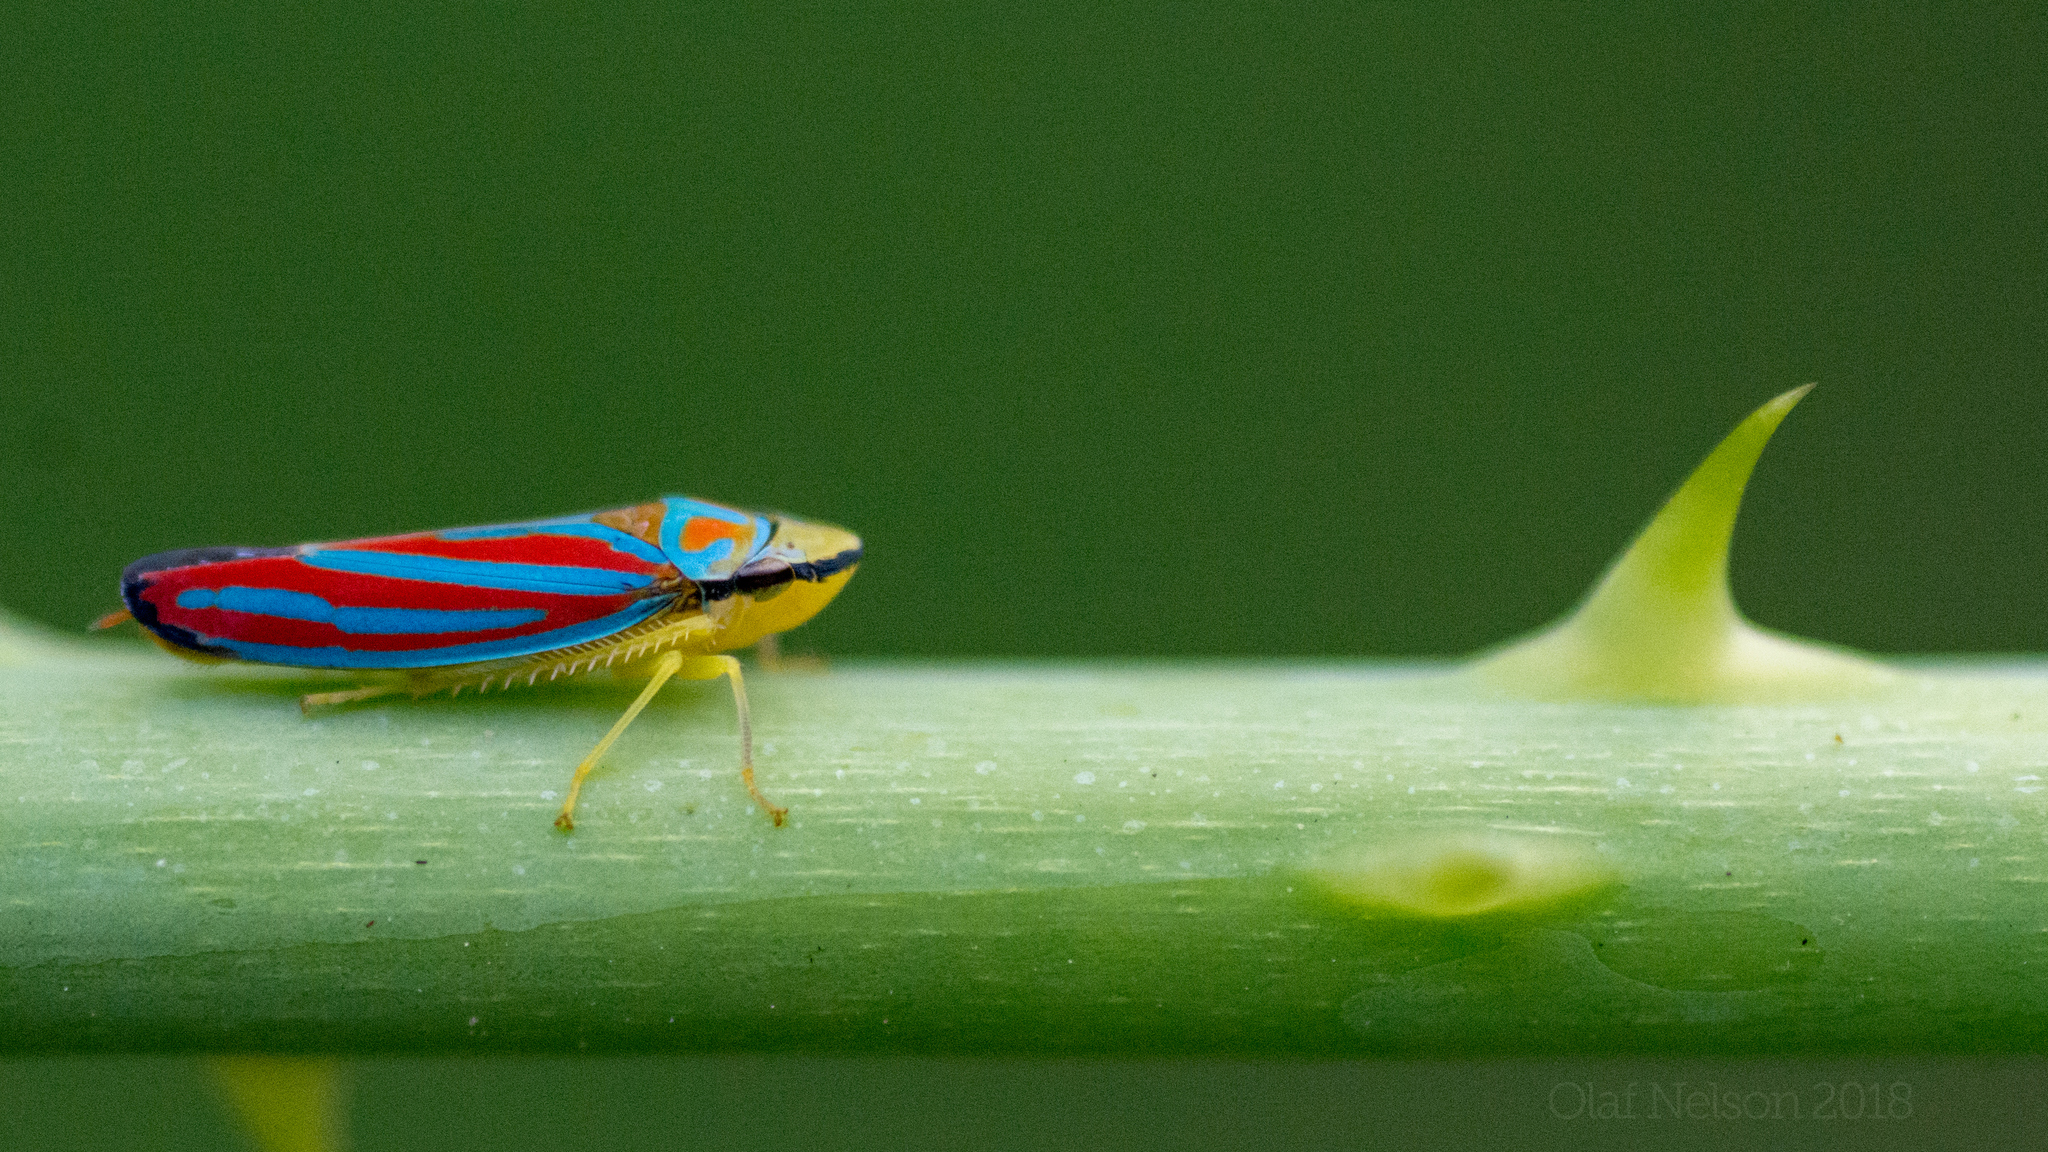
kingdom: Animalia
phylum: Arthropoda
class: Insecta
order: Hemiptera
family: Cicadellidae
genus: Graphocephala
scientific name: Graphocephala coccinea
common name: Candy-striped leafhopper
